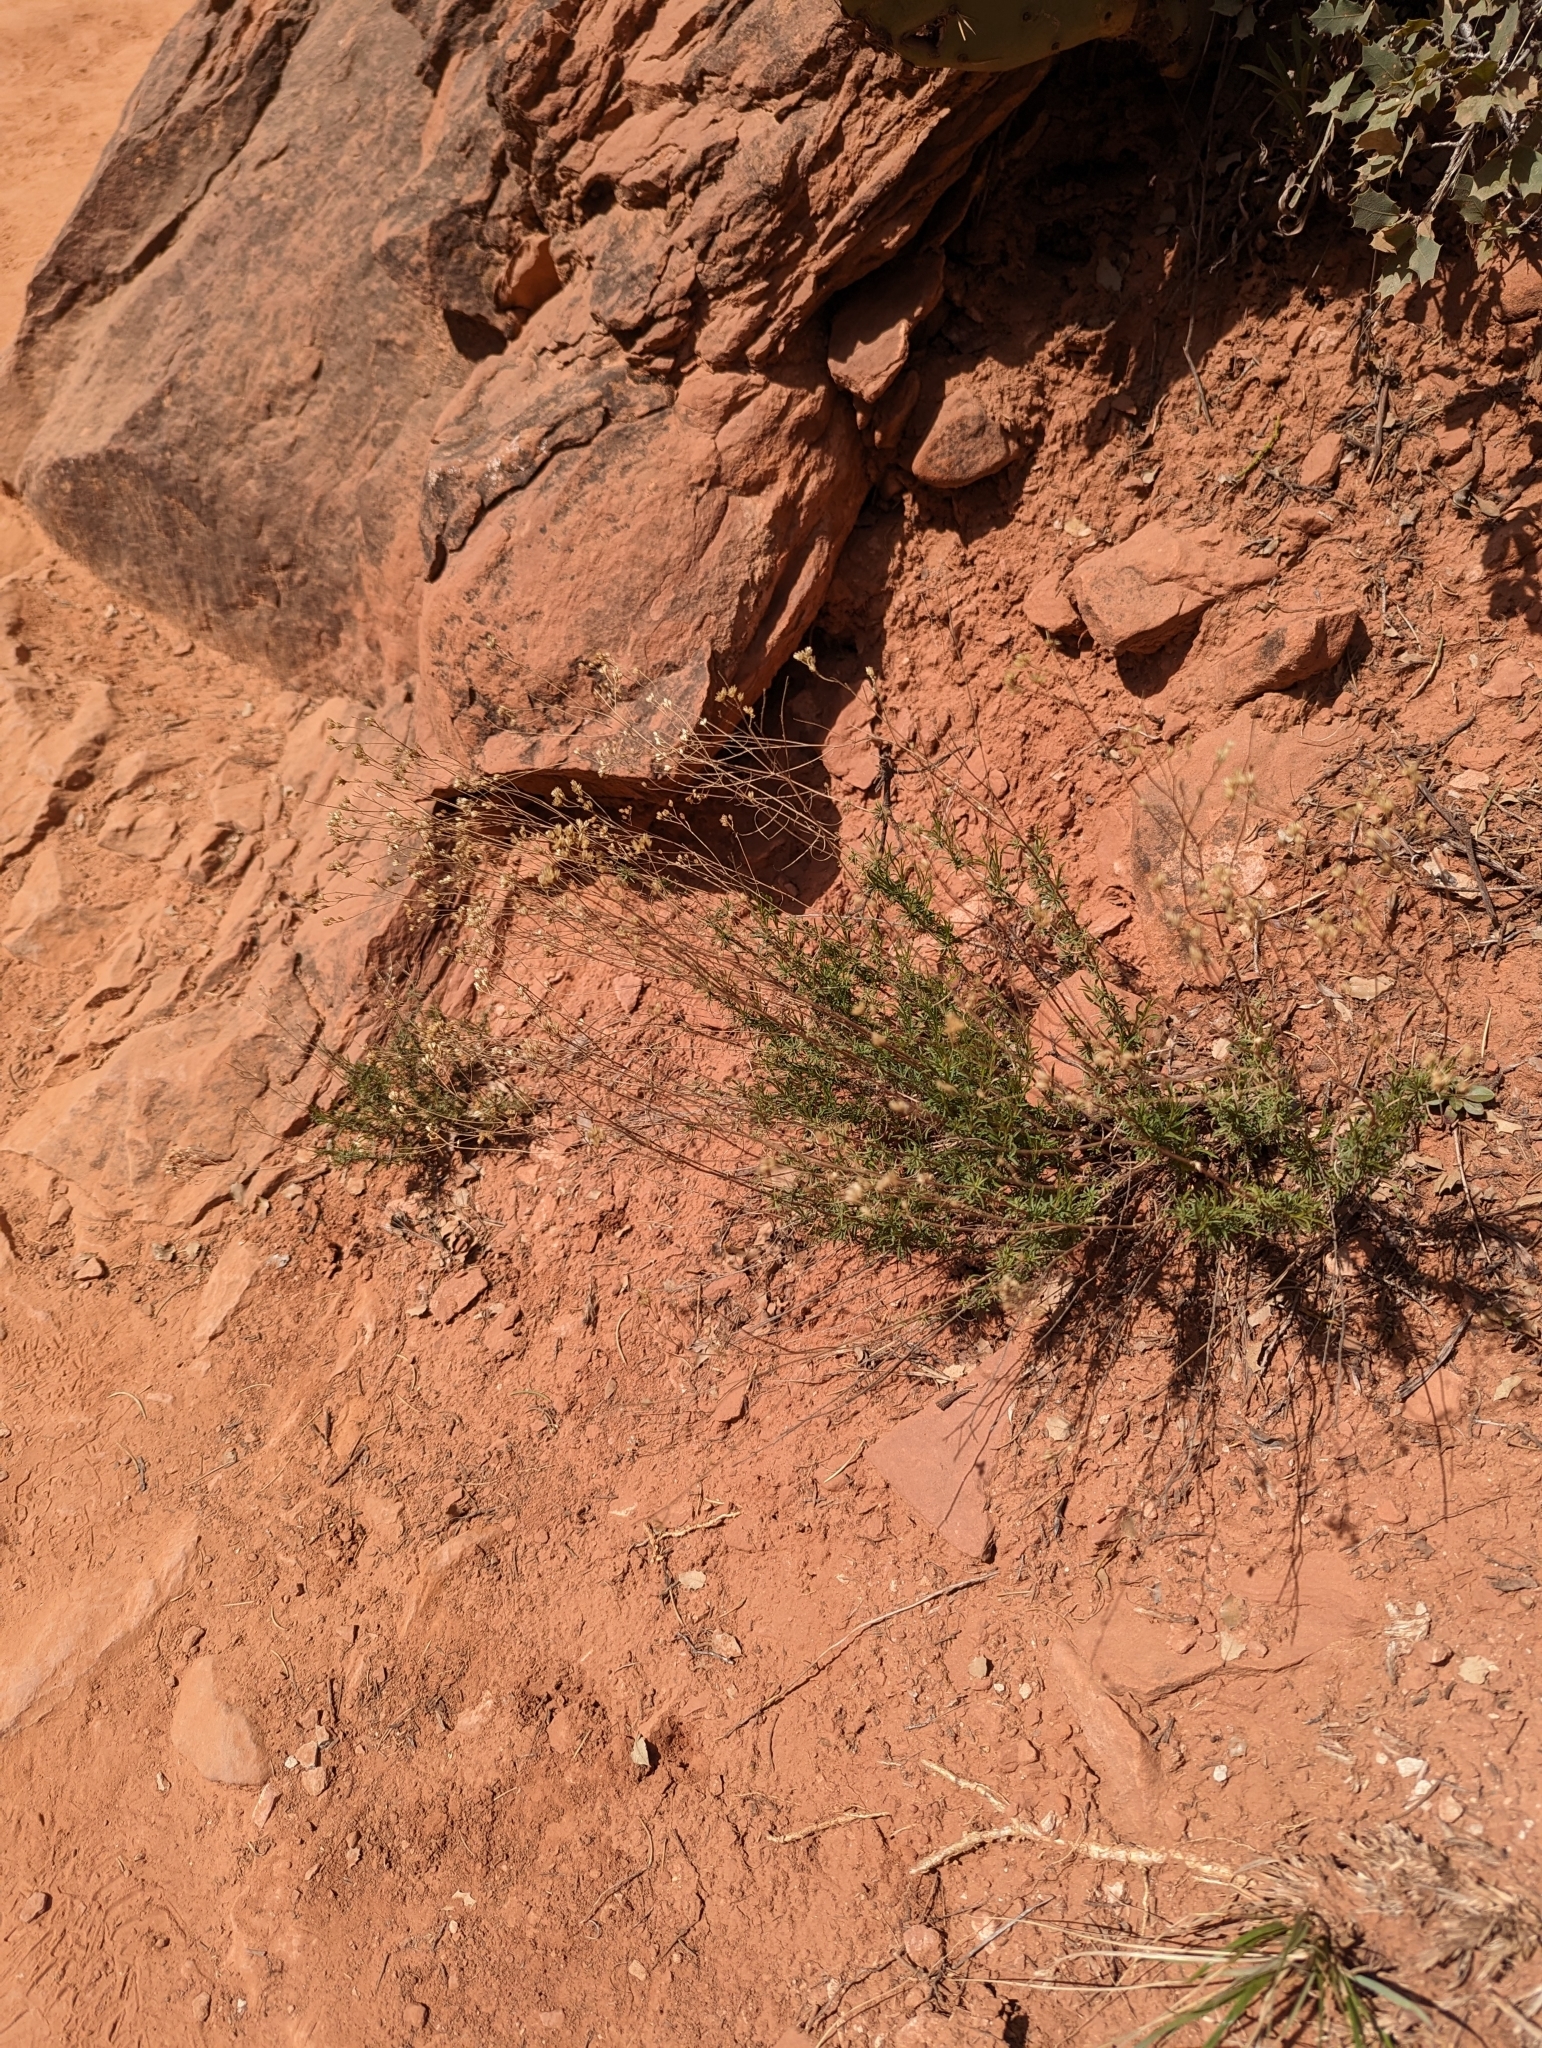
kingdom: Plantae
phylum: Tracheophyta
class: Magnoliopsida
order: Asterales
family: Asteraceae
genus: Gutierrezia
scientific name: Gutierrezia sarothrae
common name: Broom snakeweed
